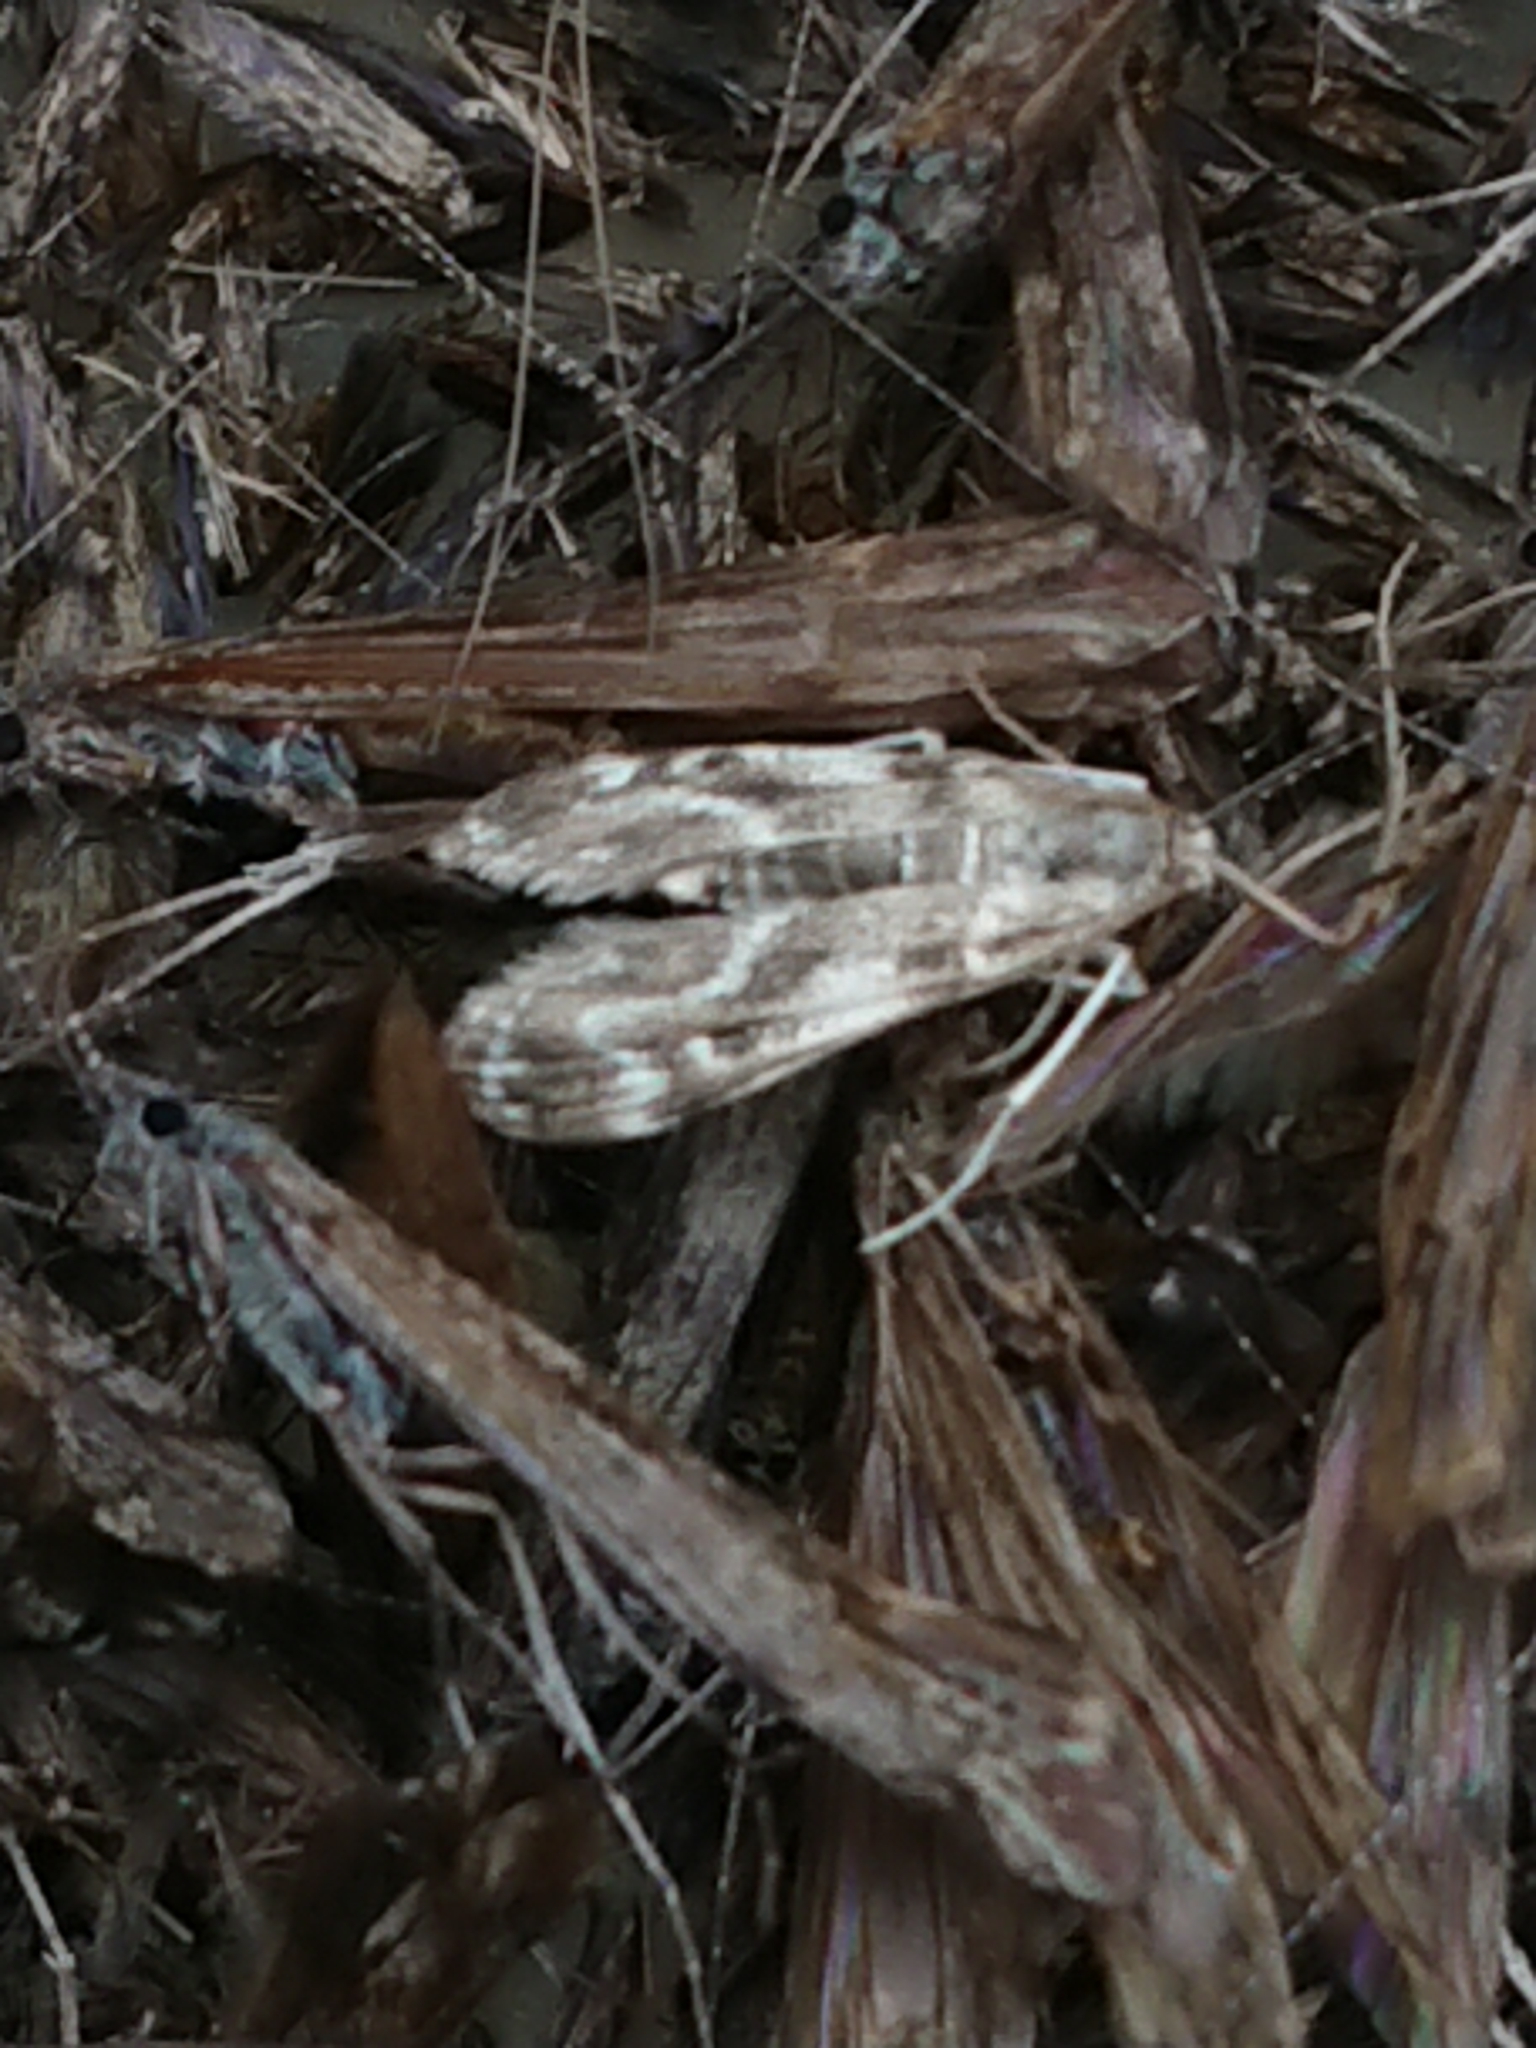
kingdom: Animalia
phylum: Arthropoda
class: Insecta
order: Lepidoptera
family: Crambidae
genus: Hygraula
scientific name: Hygraula nitens
